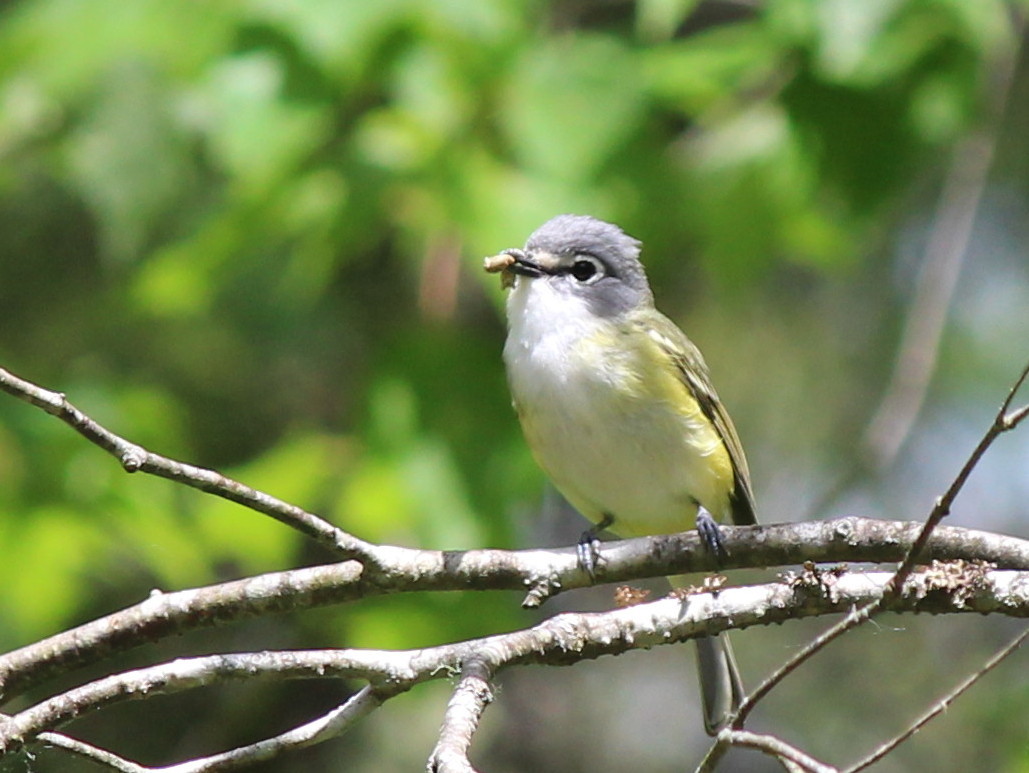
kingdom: Animalia
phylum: Chordata
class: Aves
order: Passeriformes
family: Vireonidae
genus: Vireo
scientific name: Vireo solitarius
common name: Blue-headed vireo
